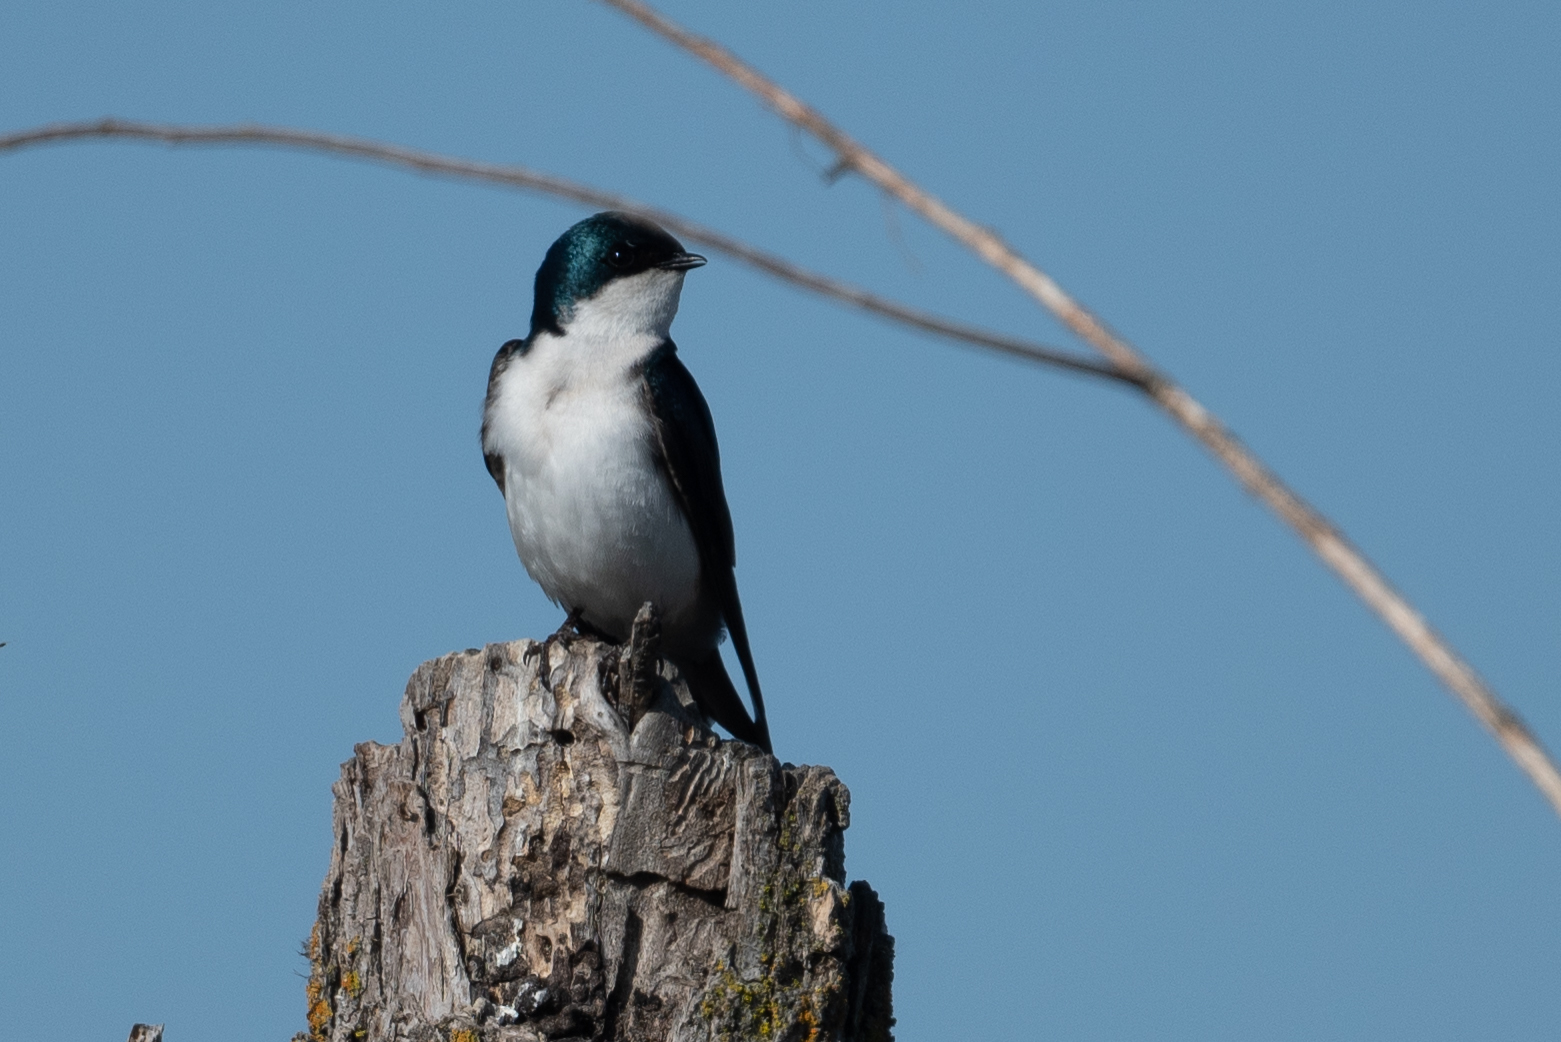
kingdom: Animalia
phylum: Chordata
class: Aves
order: Passeriformes
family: Hirundinidae
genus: Tachycineta
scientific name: Tachycineta bicolor
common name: Tree swallow
